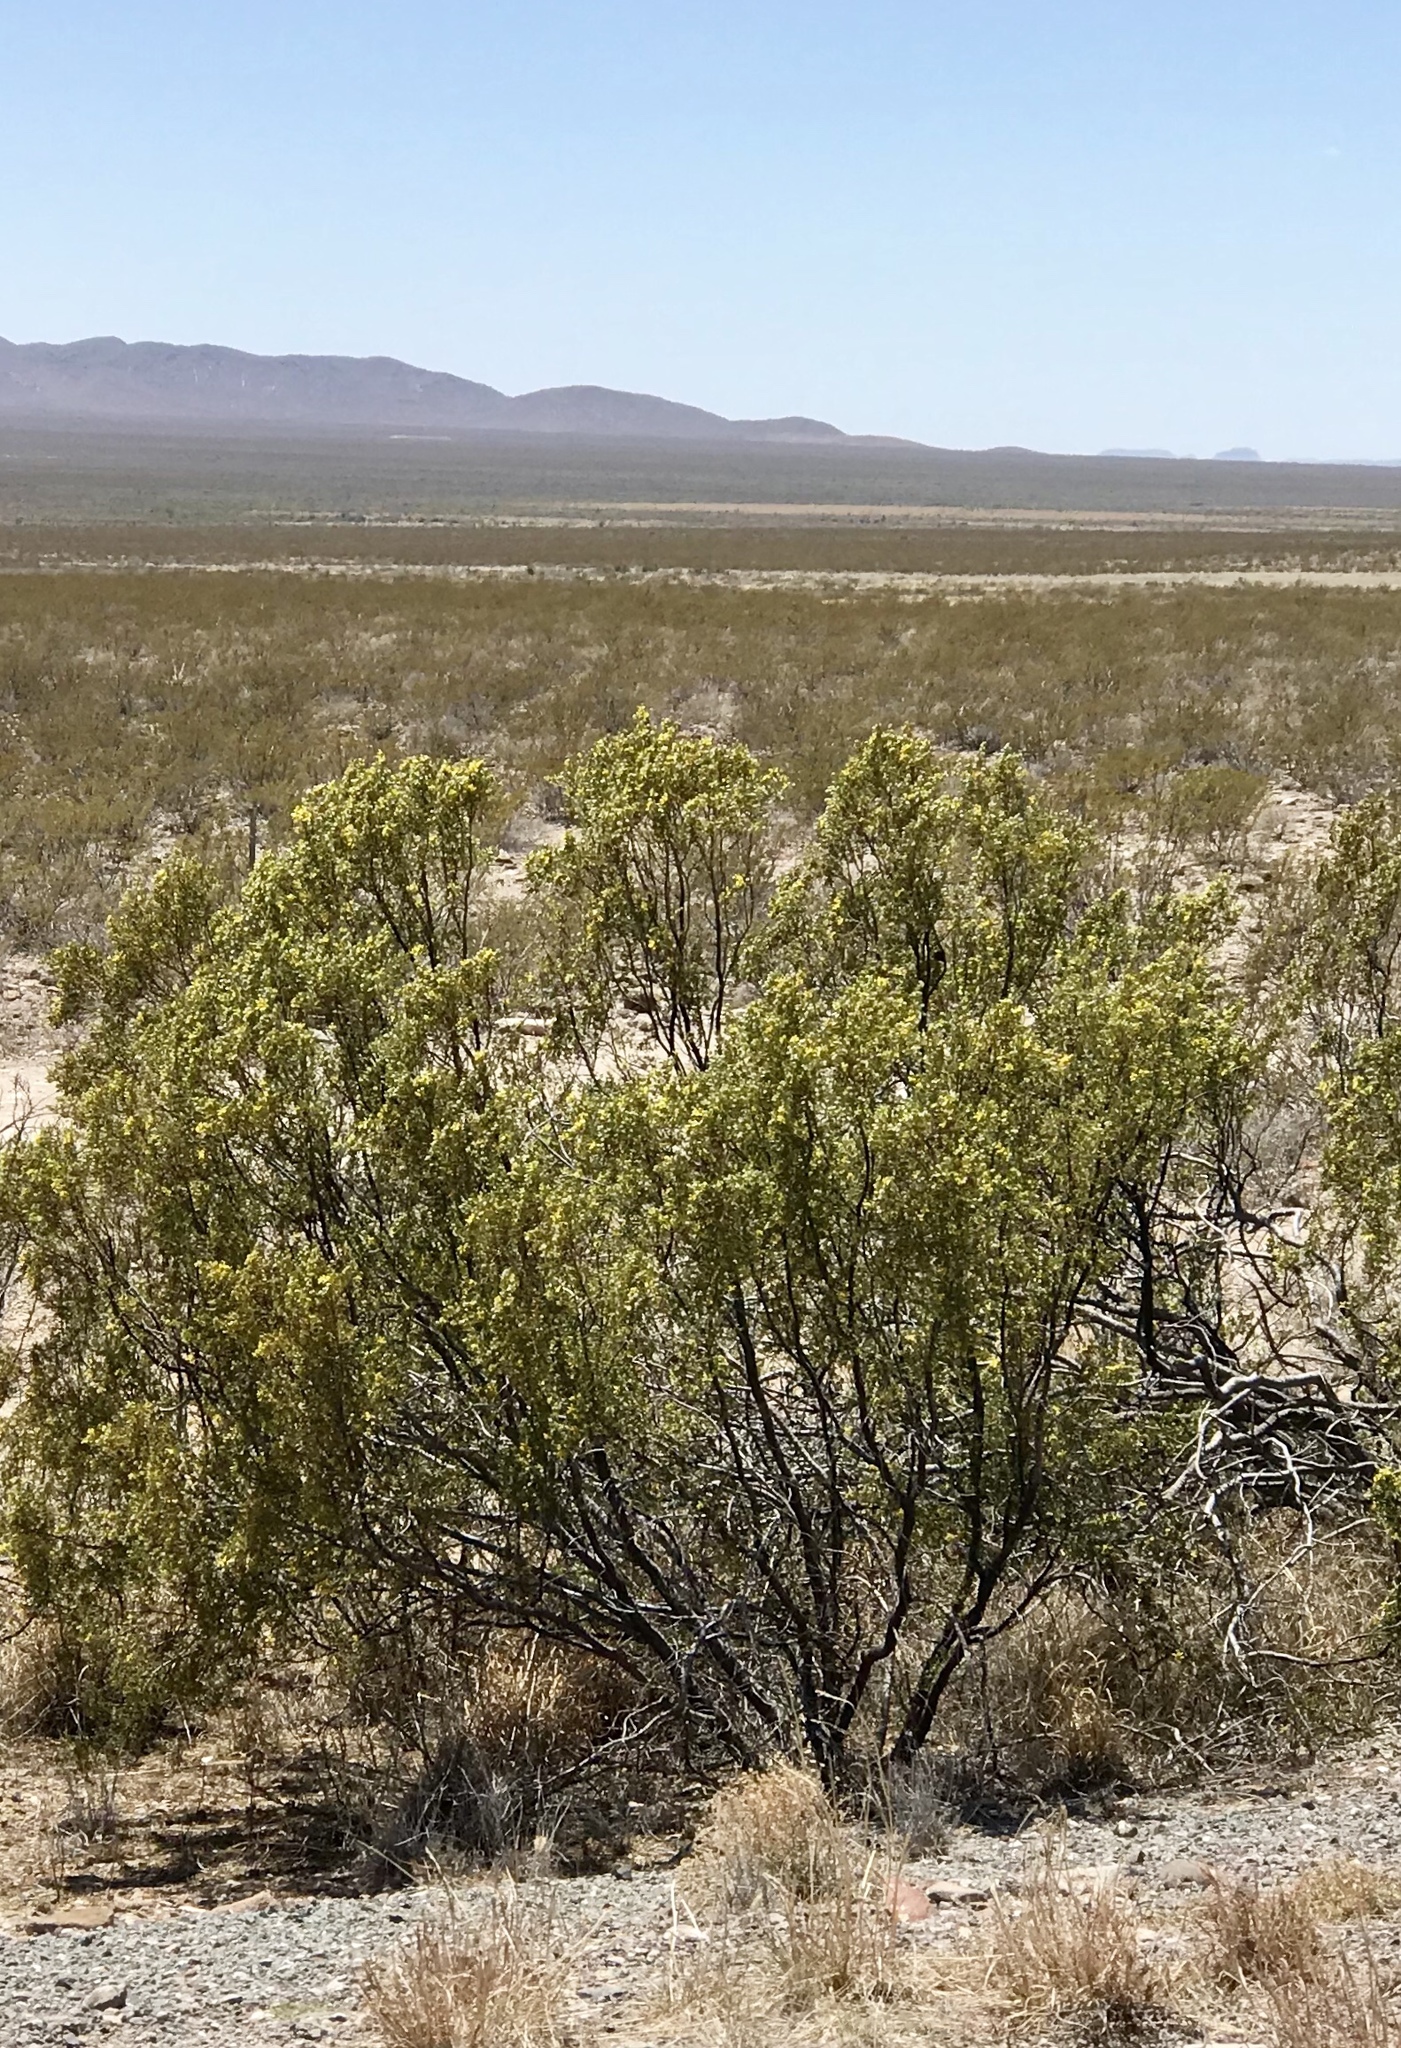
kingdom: Plantae
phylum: Tracheophyta
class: Magnoliopsida
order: Zygophyllales
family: Zygophyllaceae
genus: Larrea
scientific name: Larrea tridentata
